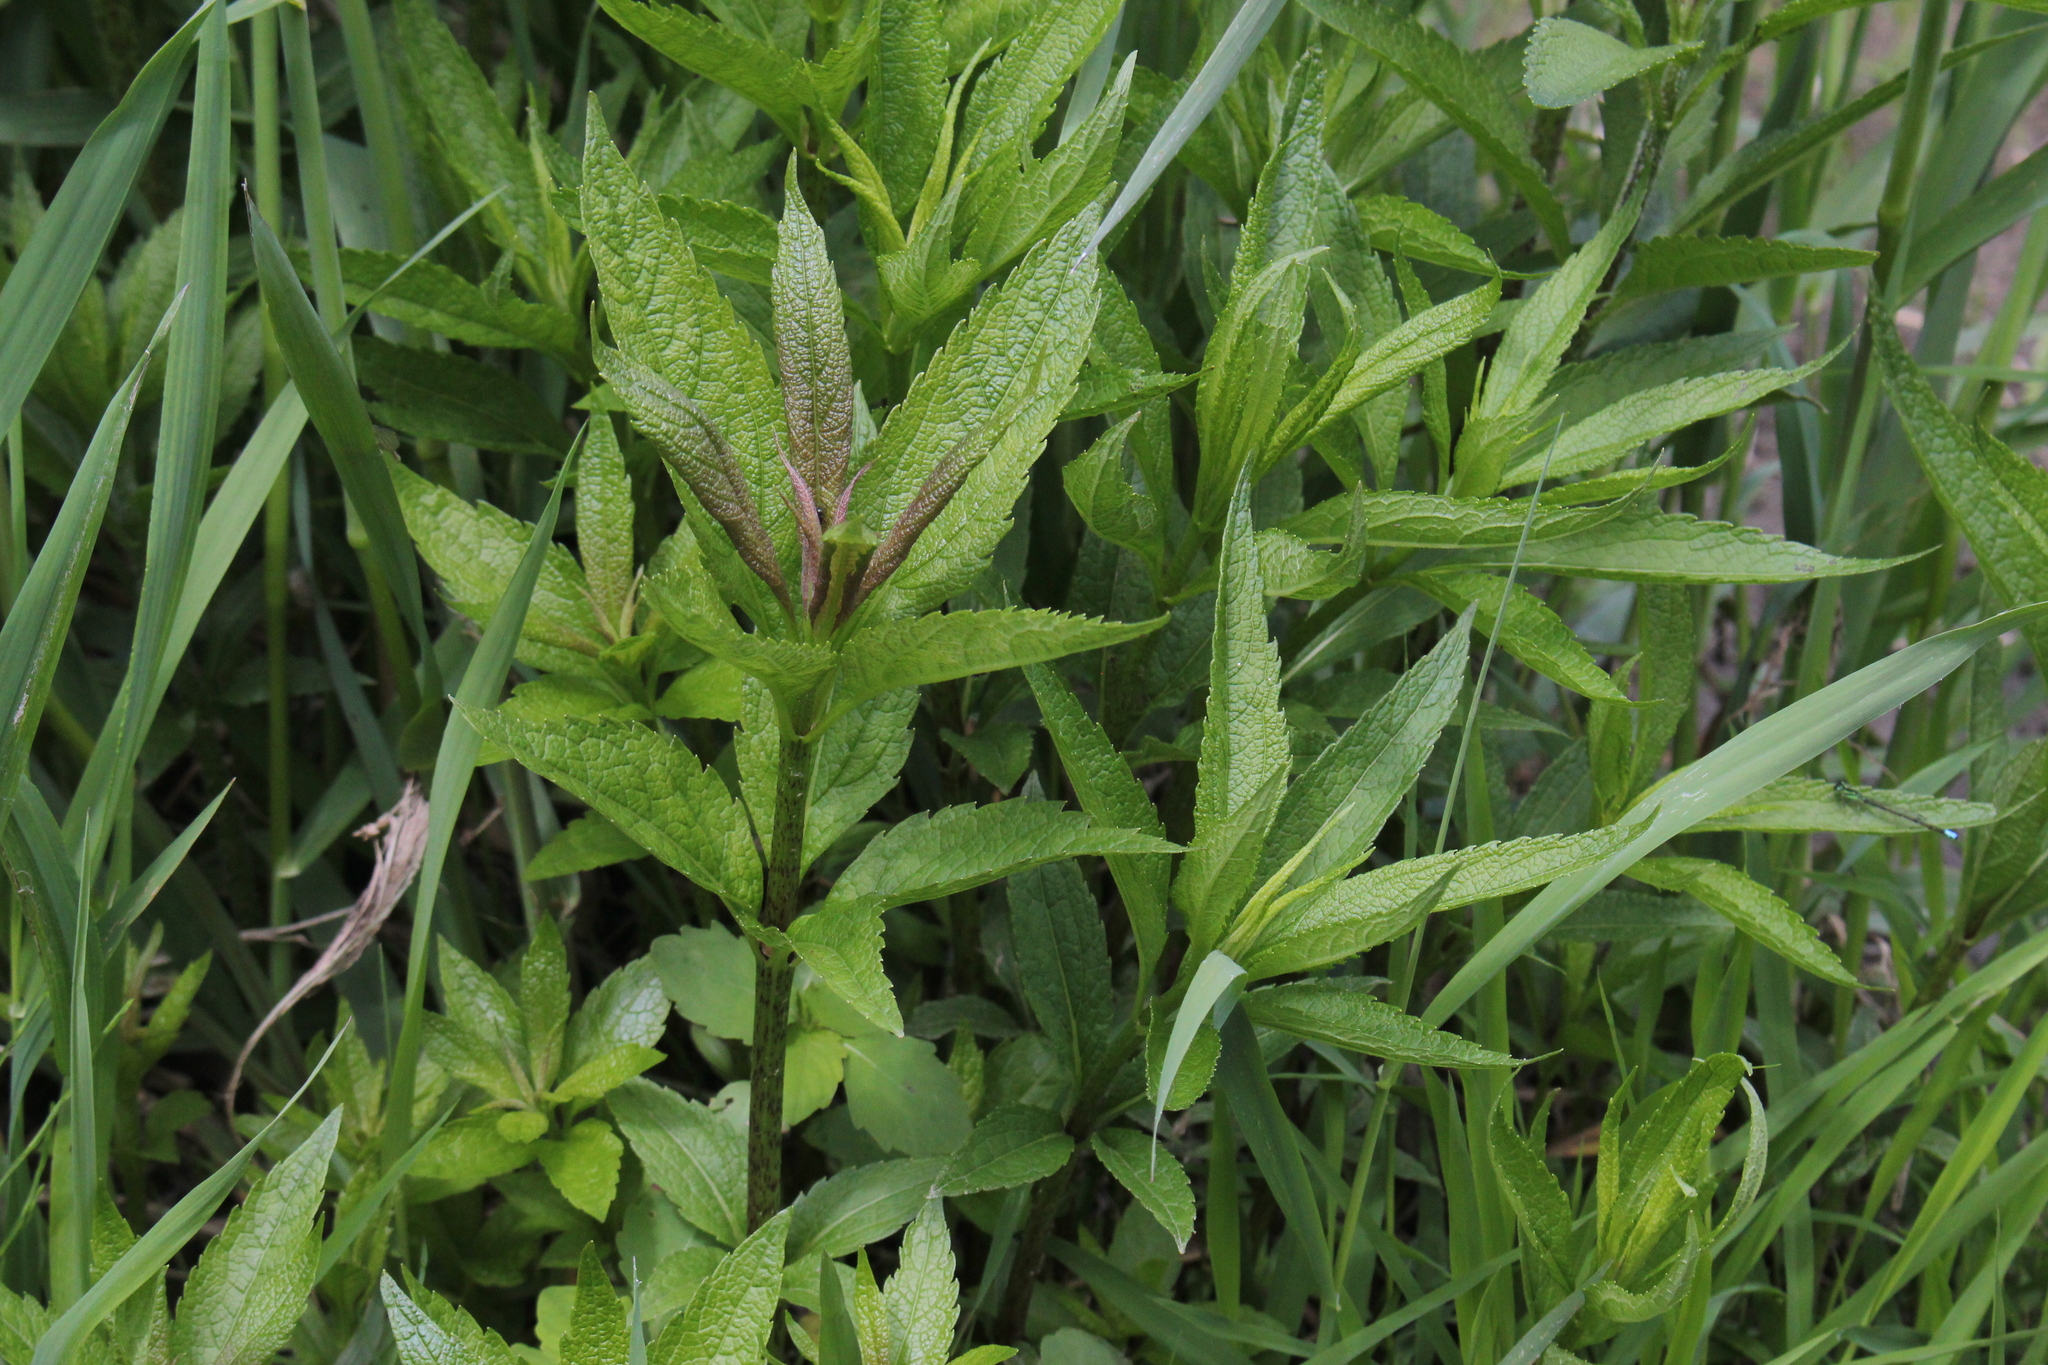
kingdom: Plantae
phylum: Tracheophyta
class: Magnoliopsida
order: Asterales
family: Asteraceae
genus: Eutrochium
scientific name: Eutrochium maculatum
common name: Spotted joe pye weed
